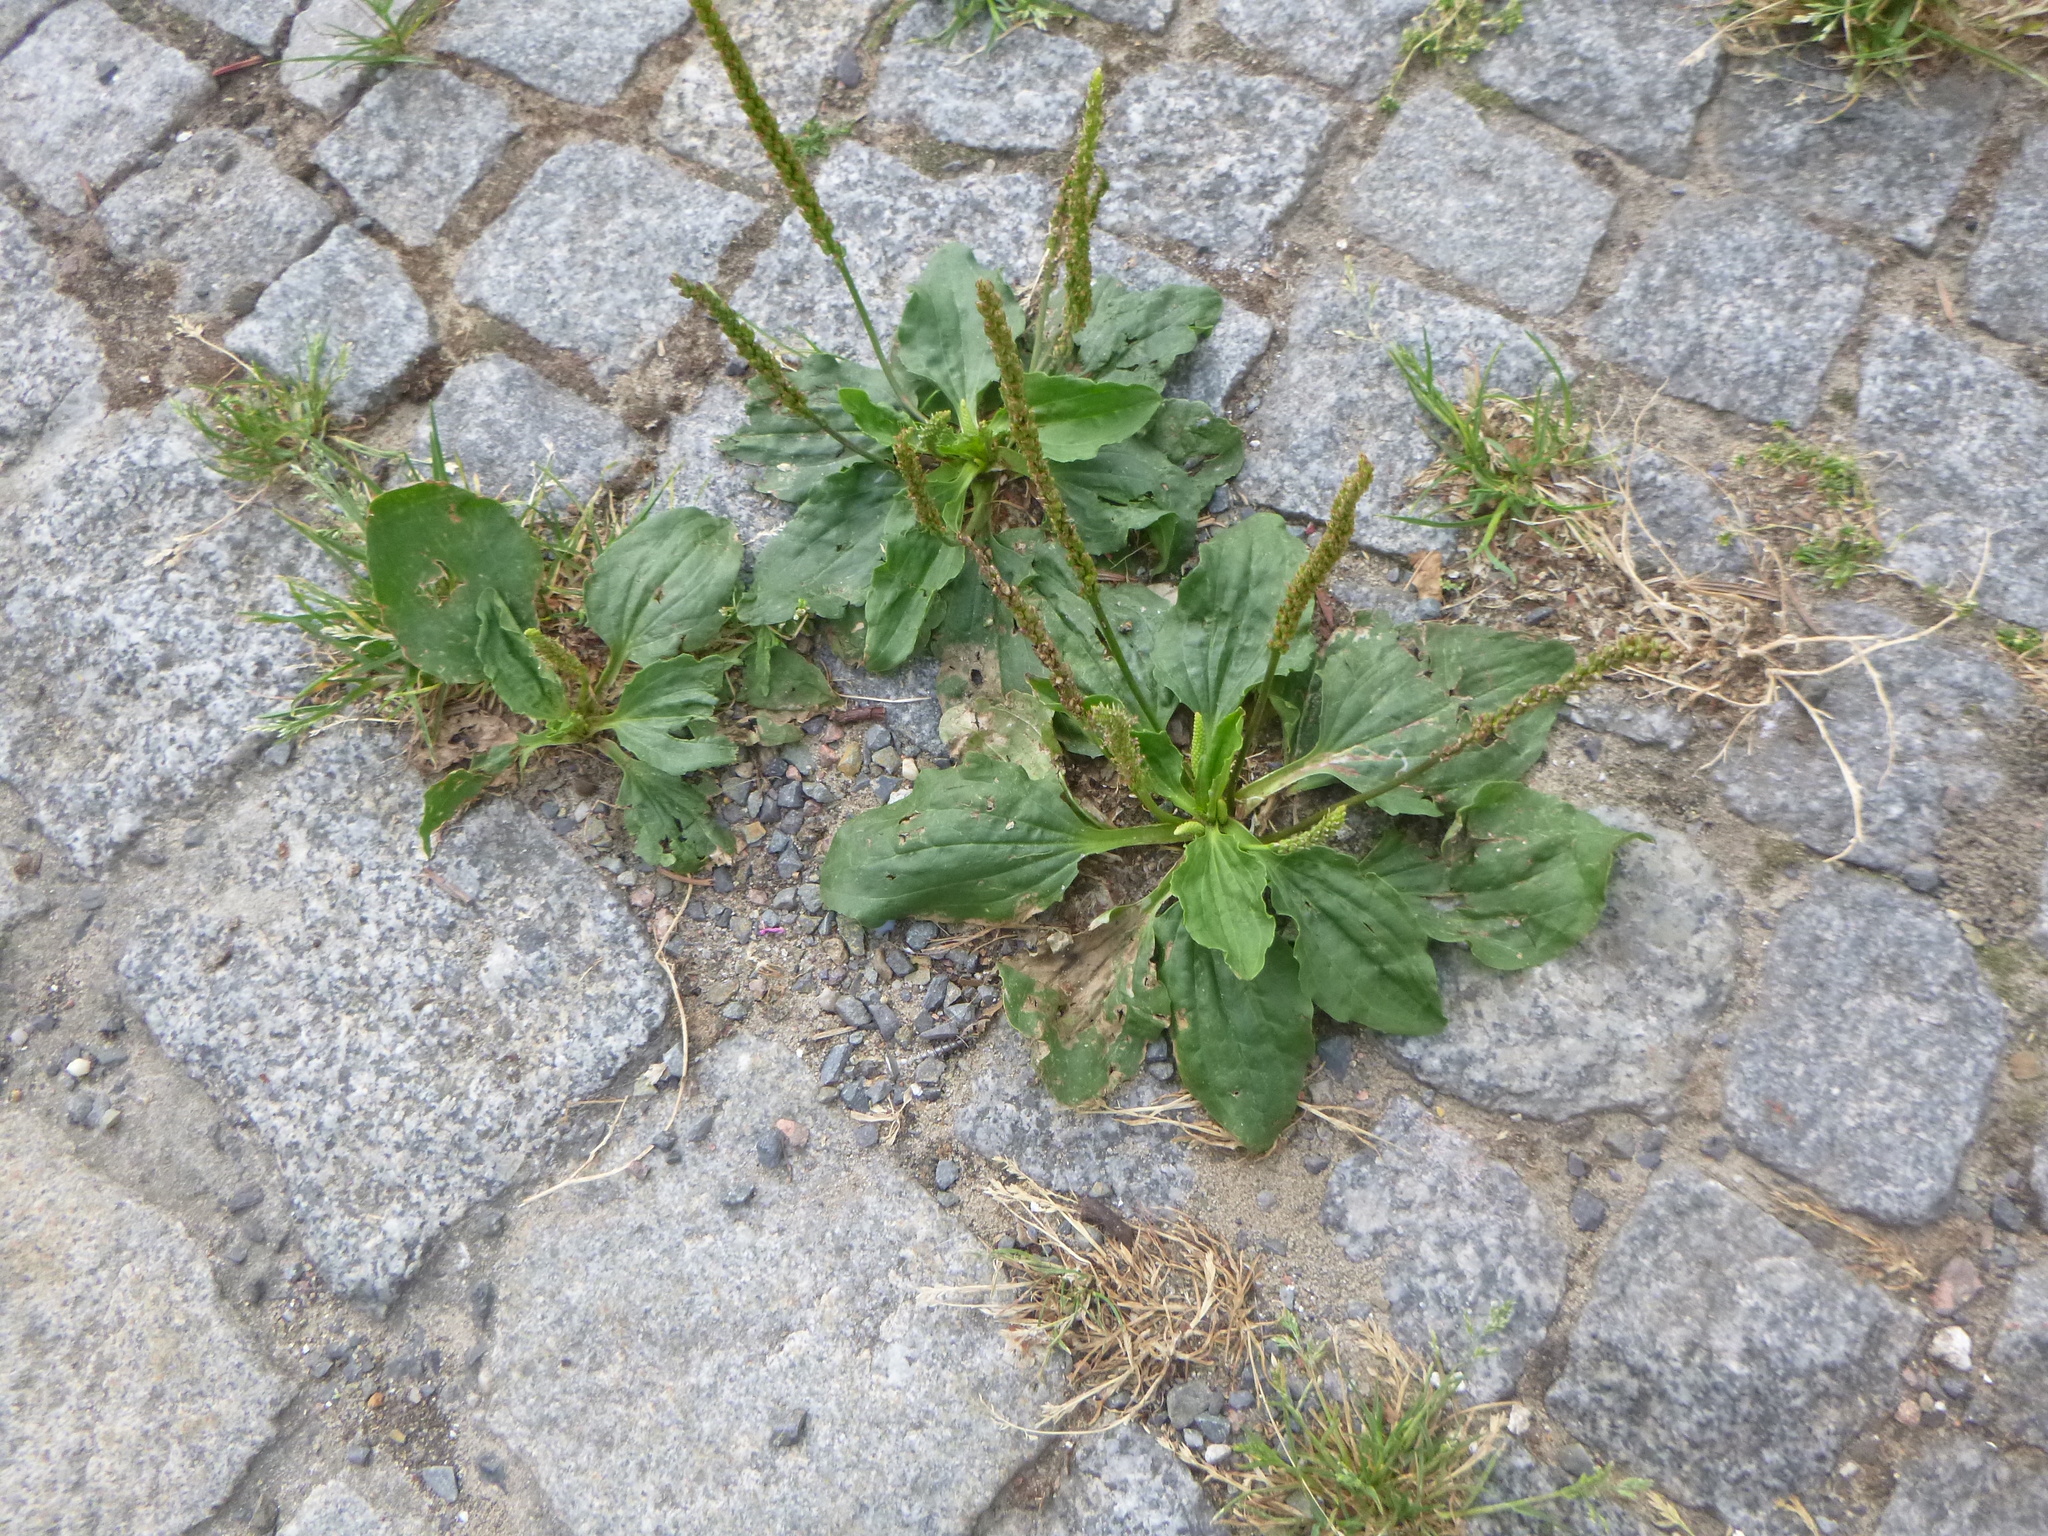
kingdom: Plantae
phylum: Tracheophyta
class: Magnoliopsida
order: Lamiales
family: Plantaginaceae
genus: Plantago
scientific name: Plantago major
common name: Common plantain
